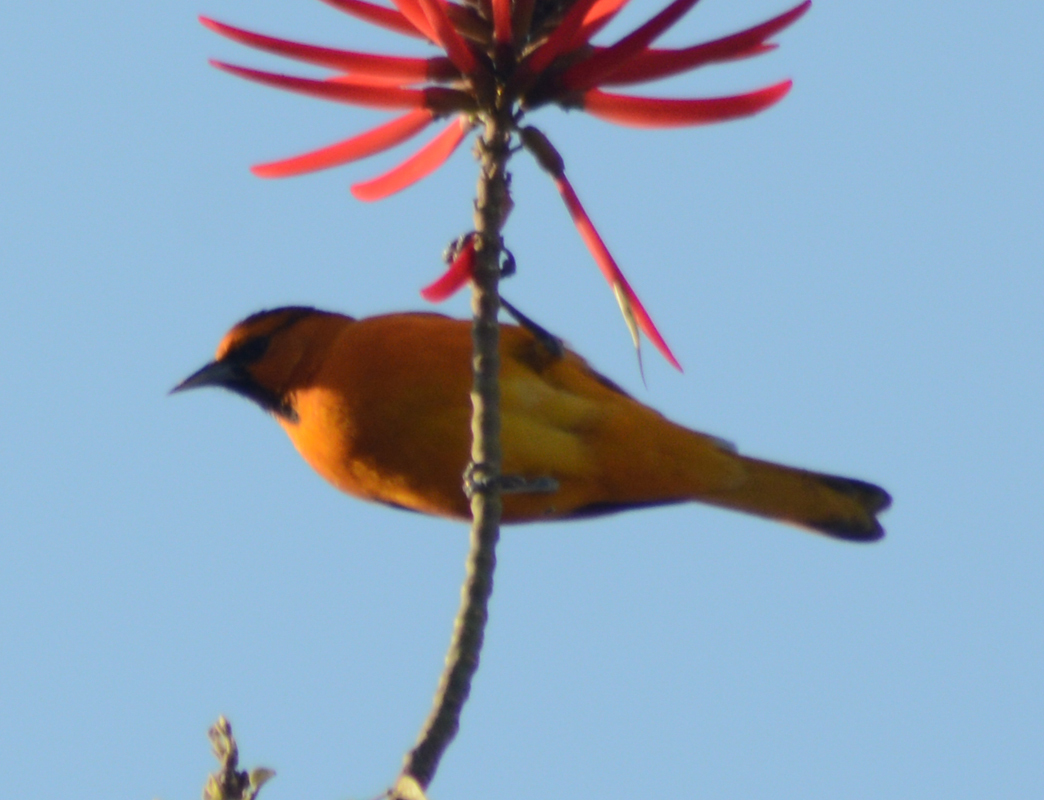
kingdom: Animalia
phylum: Chordata
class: Aves
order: Passeriformes
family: Icteridae
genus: Icterus
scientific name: Icterus bullockii
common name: Bullock's oriole
